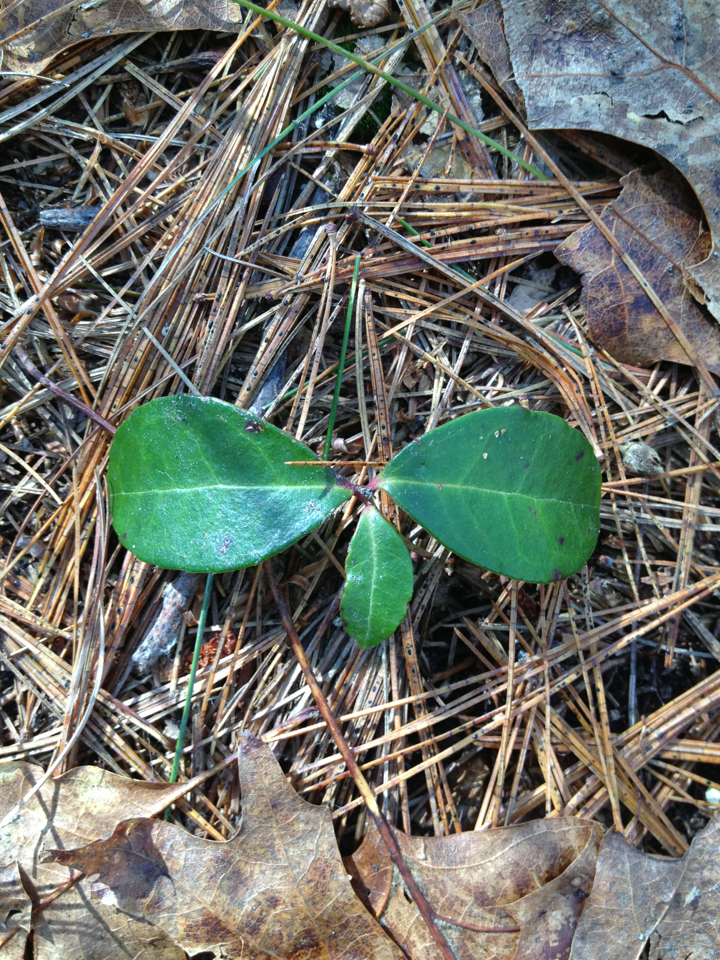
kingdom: Plantae
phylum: Tracheophyta
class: Magnoliopsida
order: Ericales
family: Ericaceae
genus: Gaultheria
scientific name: Gaultheria procumbens
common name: Checkerberry
